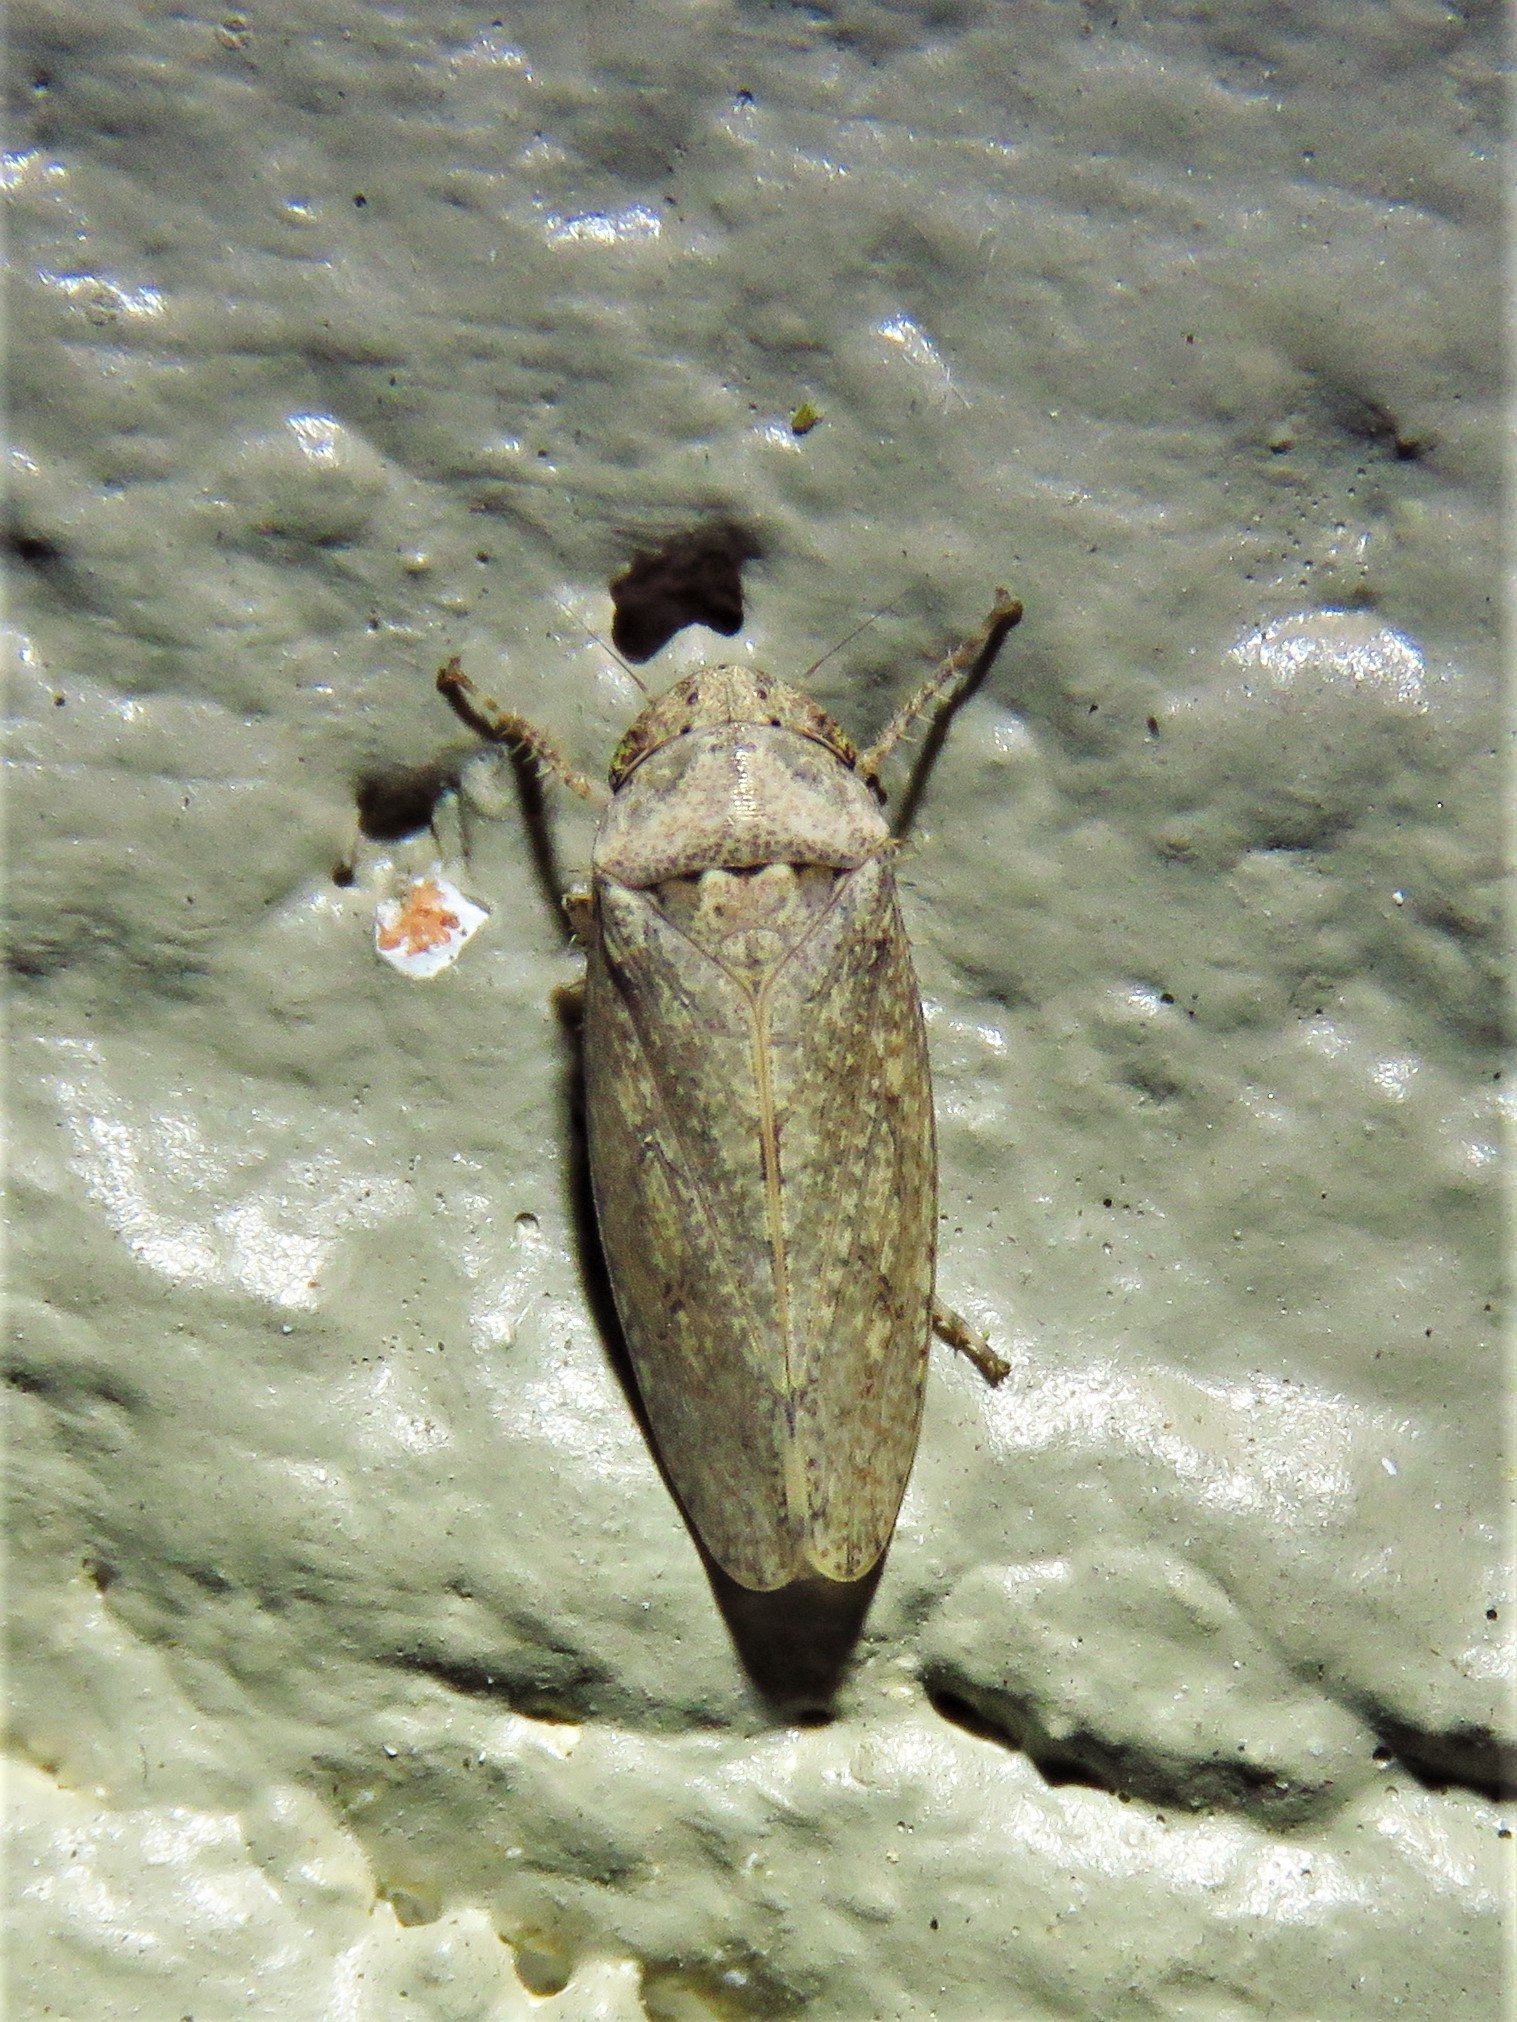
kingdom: Animalia
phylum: Arthropoda
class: Insecta
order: Hemiptera
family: Cicadellidae
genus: Curtara
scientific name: Curtara insularis
